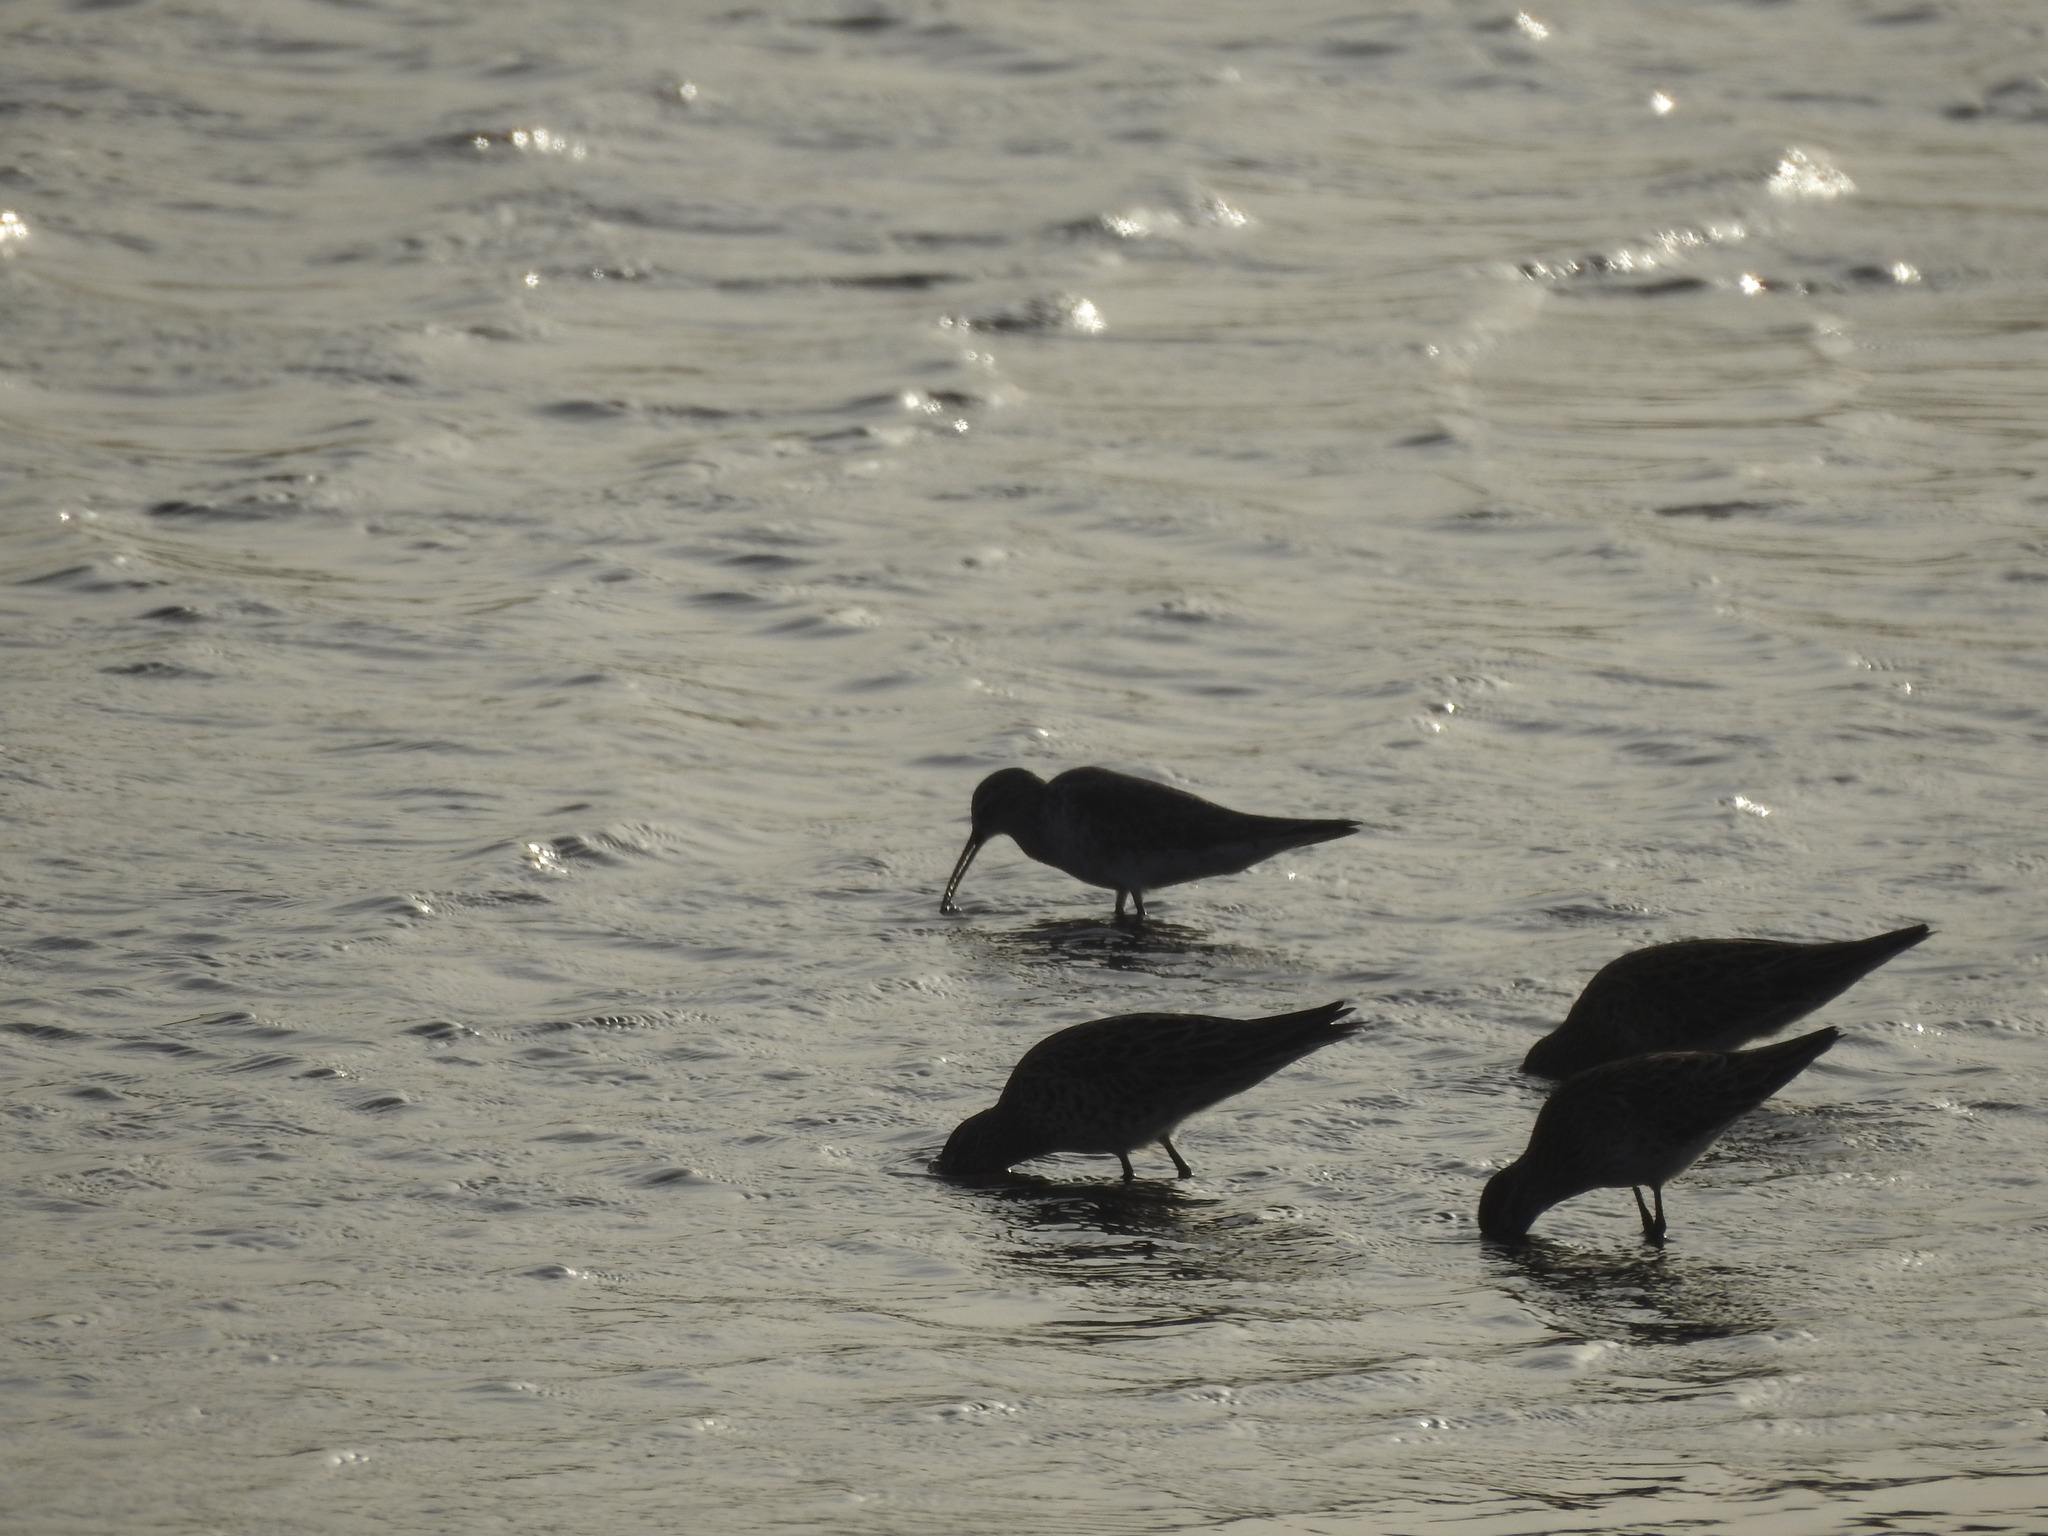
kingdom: Animalia
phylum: Chordata
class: Aves
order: Charadriiformes
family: Scolopacidae
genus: Calidris
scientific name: Calidris ferruginea
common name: Curlew sandpiper
